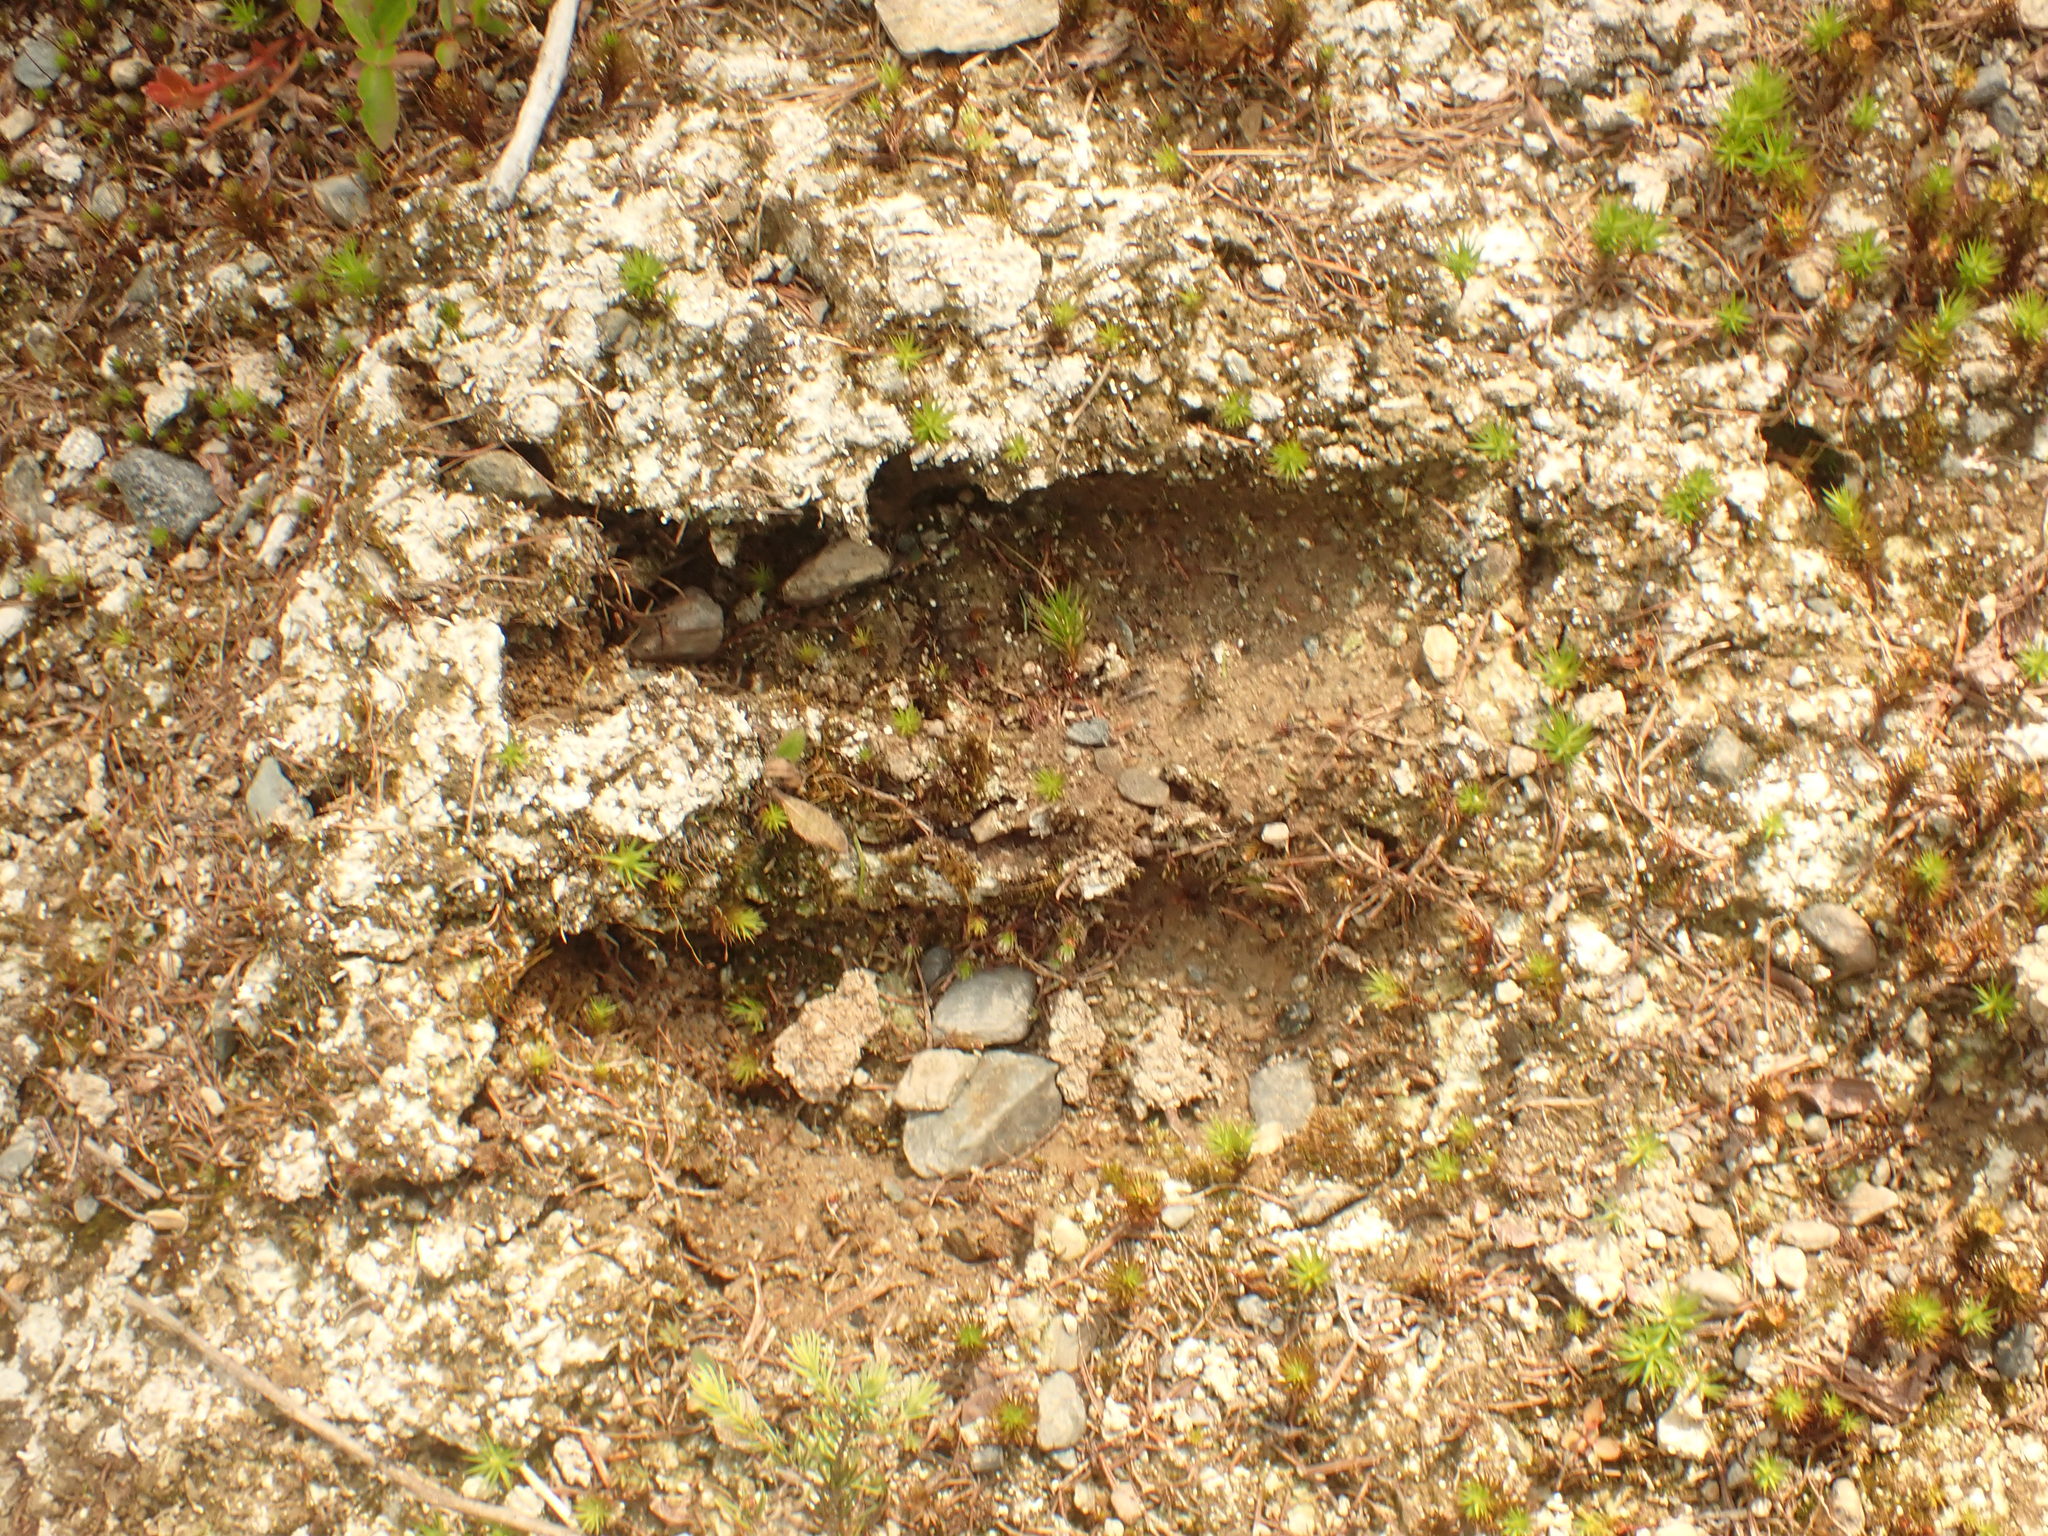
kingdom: Animalia
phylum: Chordata
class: Mammalia
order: Artiodactyla
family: Cervidae
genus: Alces
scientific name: Alces alces
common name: Moose
